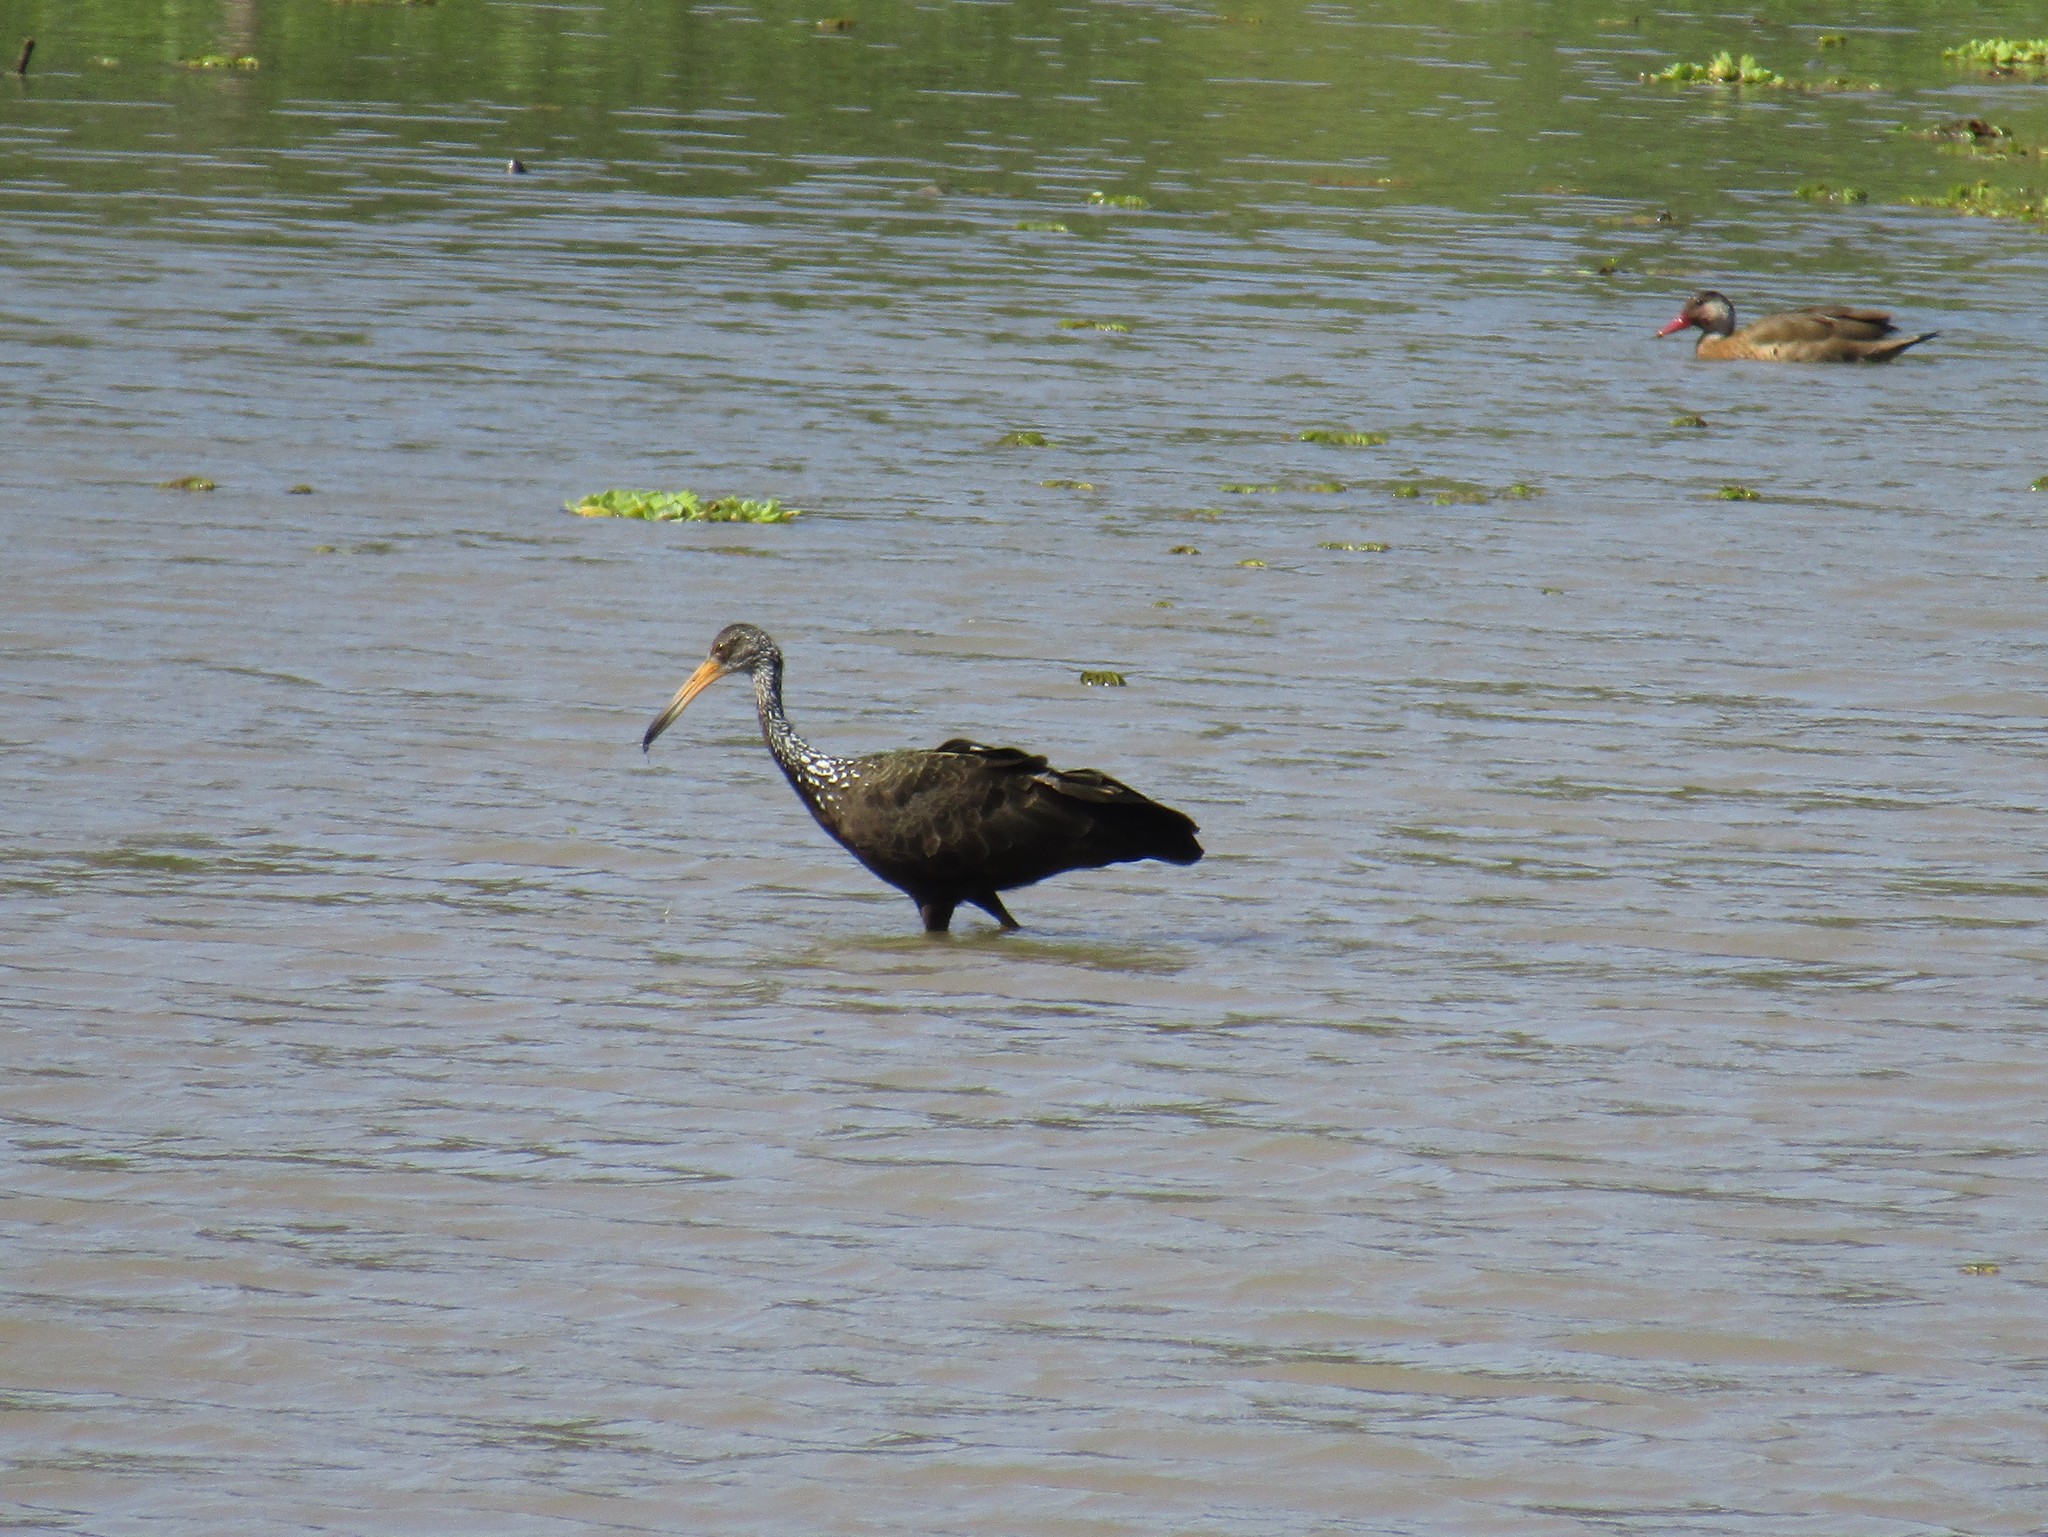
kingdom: Animalia
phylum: Chordata
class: Aves
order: Gruiformes
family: Aramidae
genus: Aramus
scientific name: Aramus guarauna
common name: Limpkin
